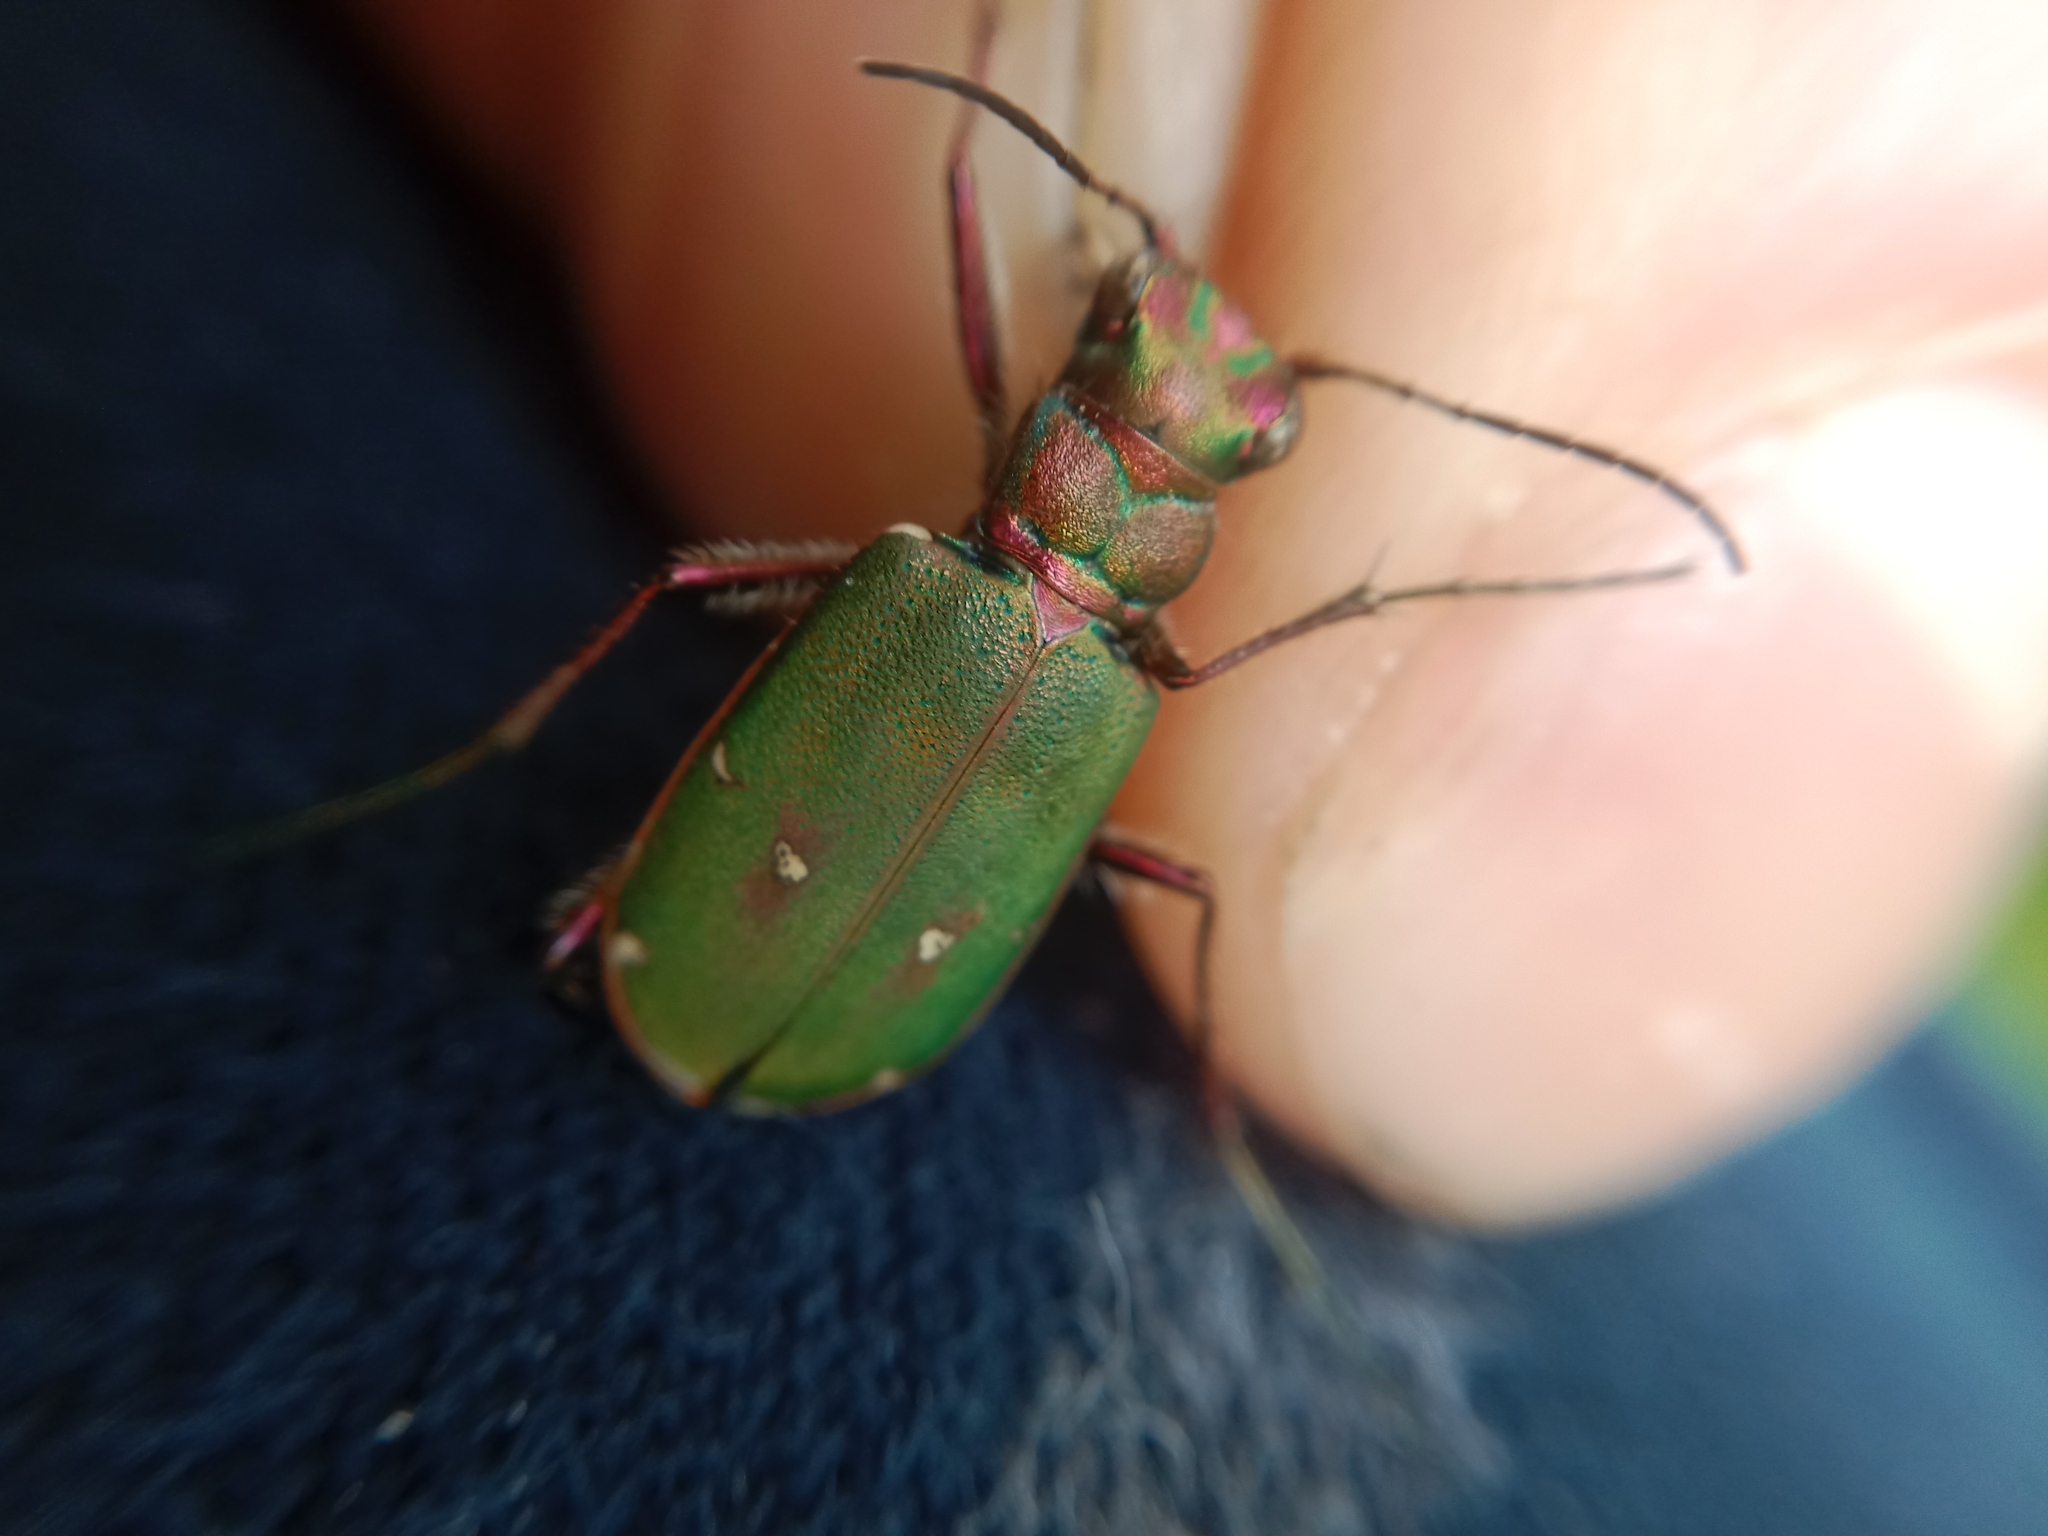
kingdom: Animalia
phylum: Arthropoda
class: Insecta
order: Coleoptera
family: Carabidae
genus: Cicindela
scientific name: Cicindela campestris
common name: Common tiger beetle
